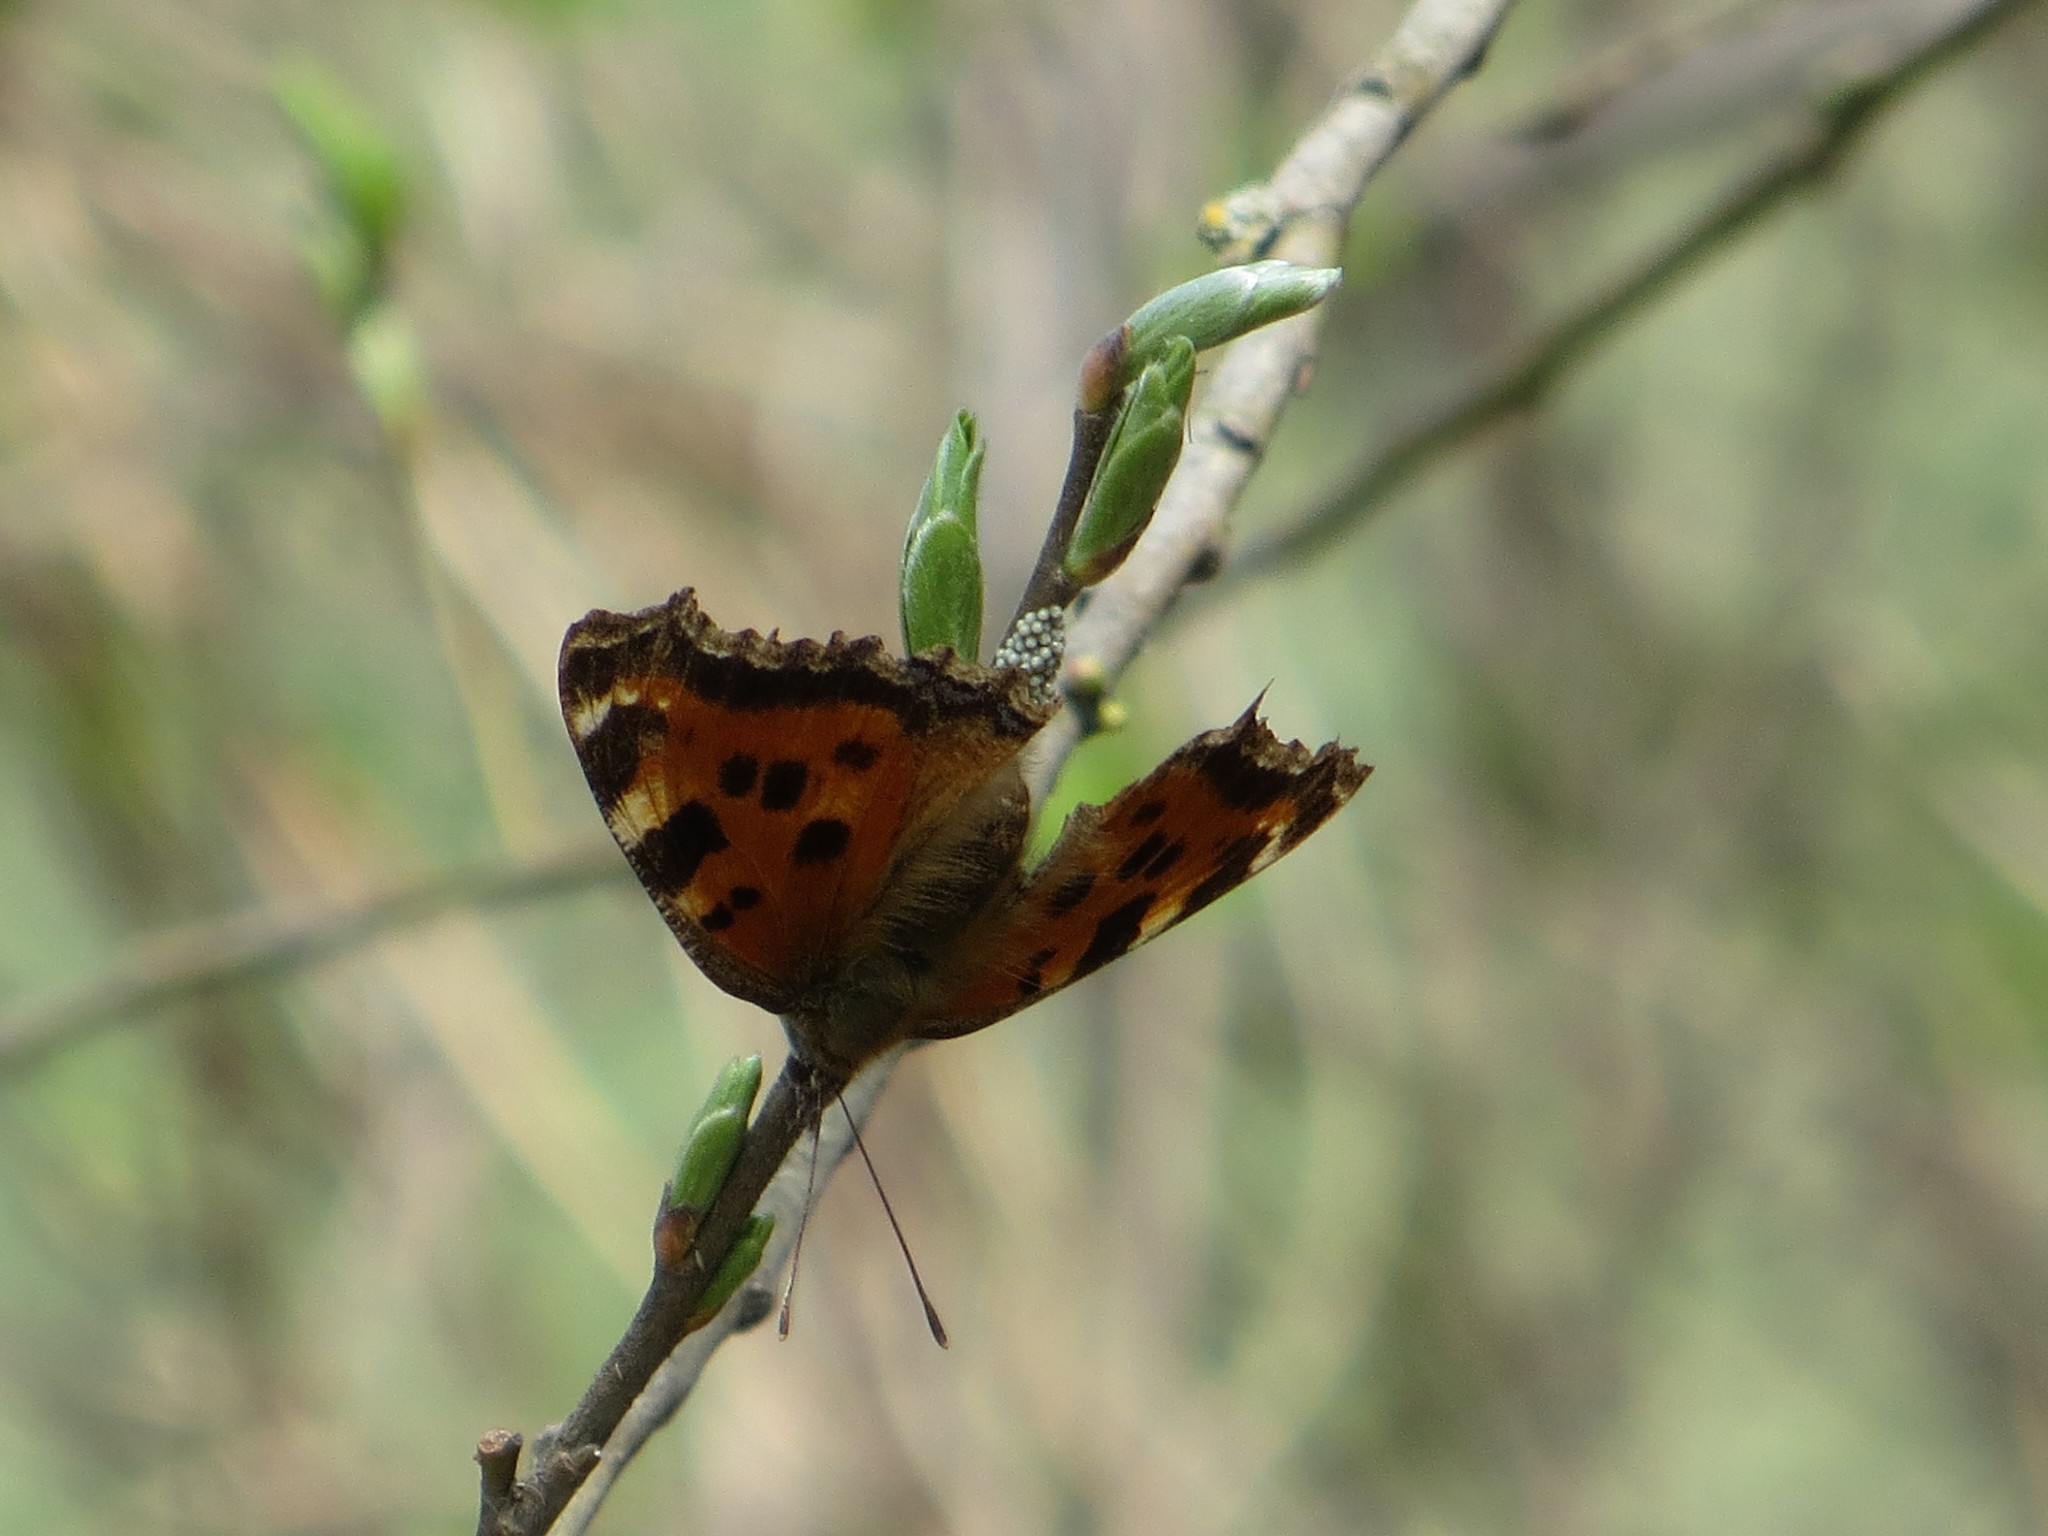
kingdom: Animalia
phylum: Arthropoda
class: Insecta
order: Lepidoptera
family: Nymphalidae
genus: Nymphalis
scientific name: Nymphalis xanthomelas
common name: Scarce tortoiseshell
